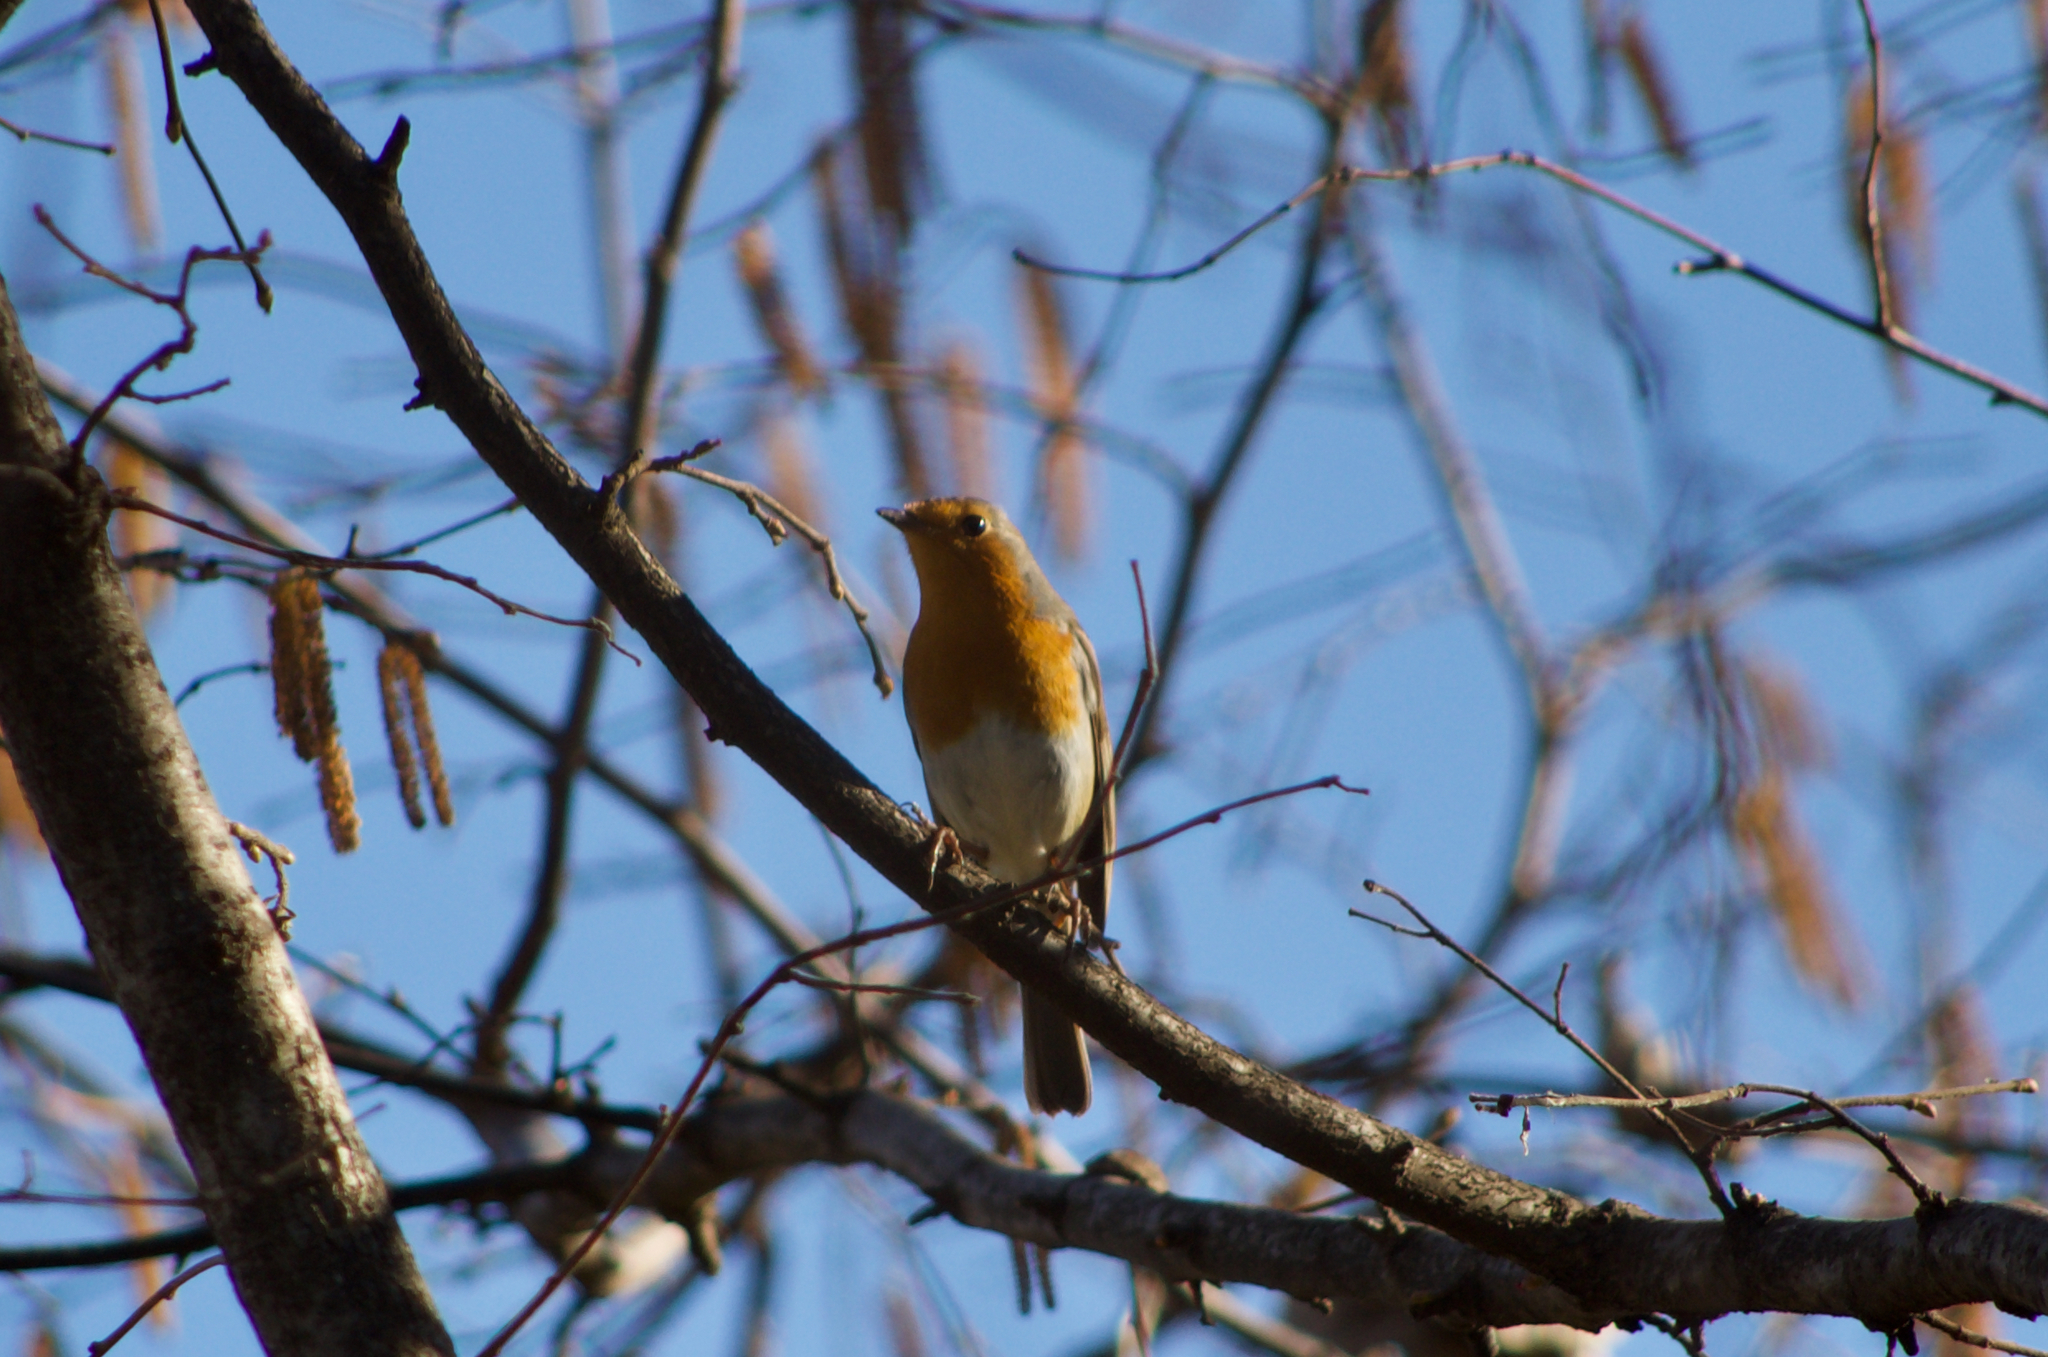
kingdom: Animalia
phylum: Chordata
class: Aves
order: Passeriformes
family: Muscicapidae
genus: Erithacus
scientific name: Erithacus rubecula
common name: European robin
